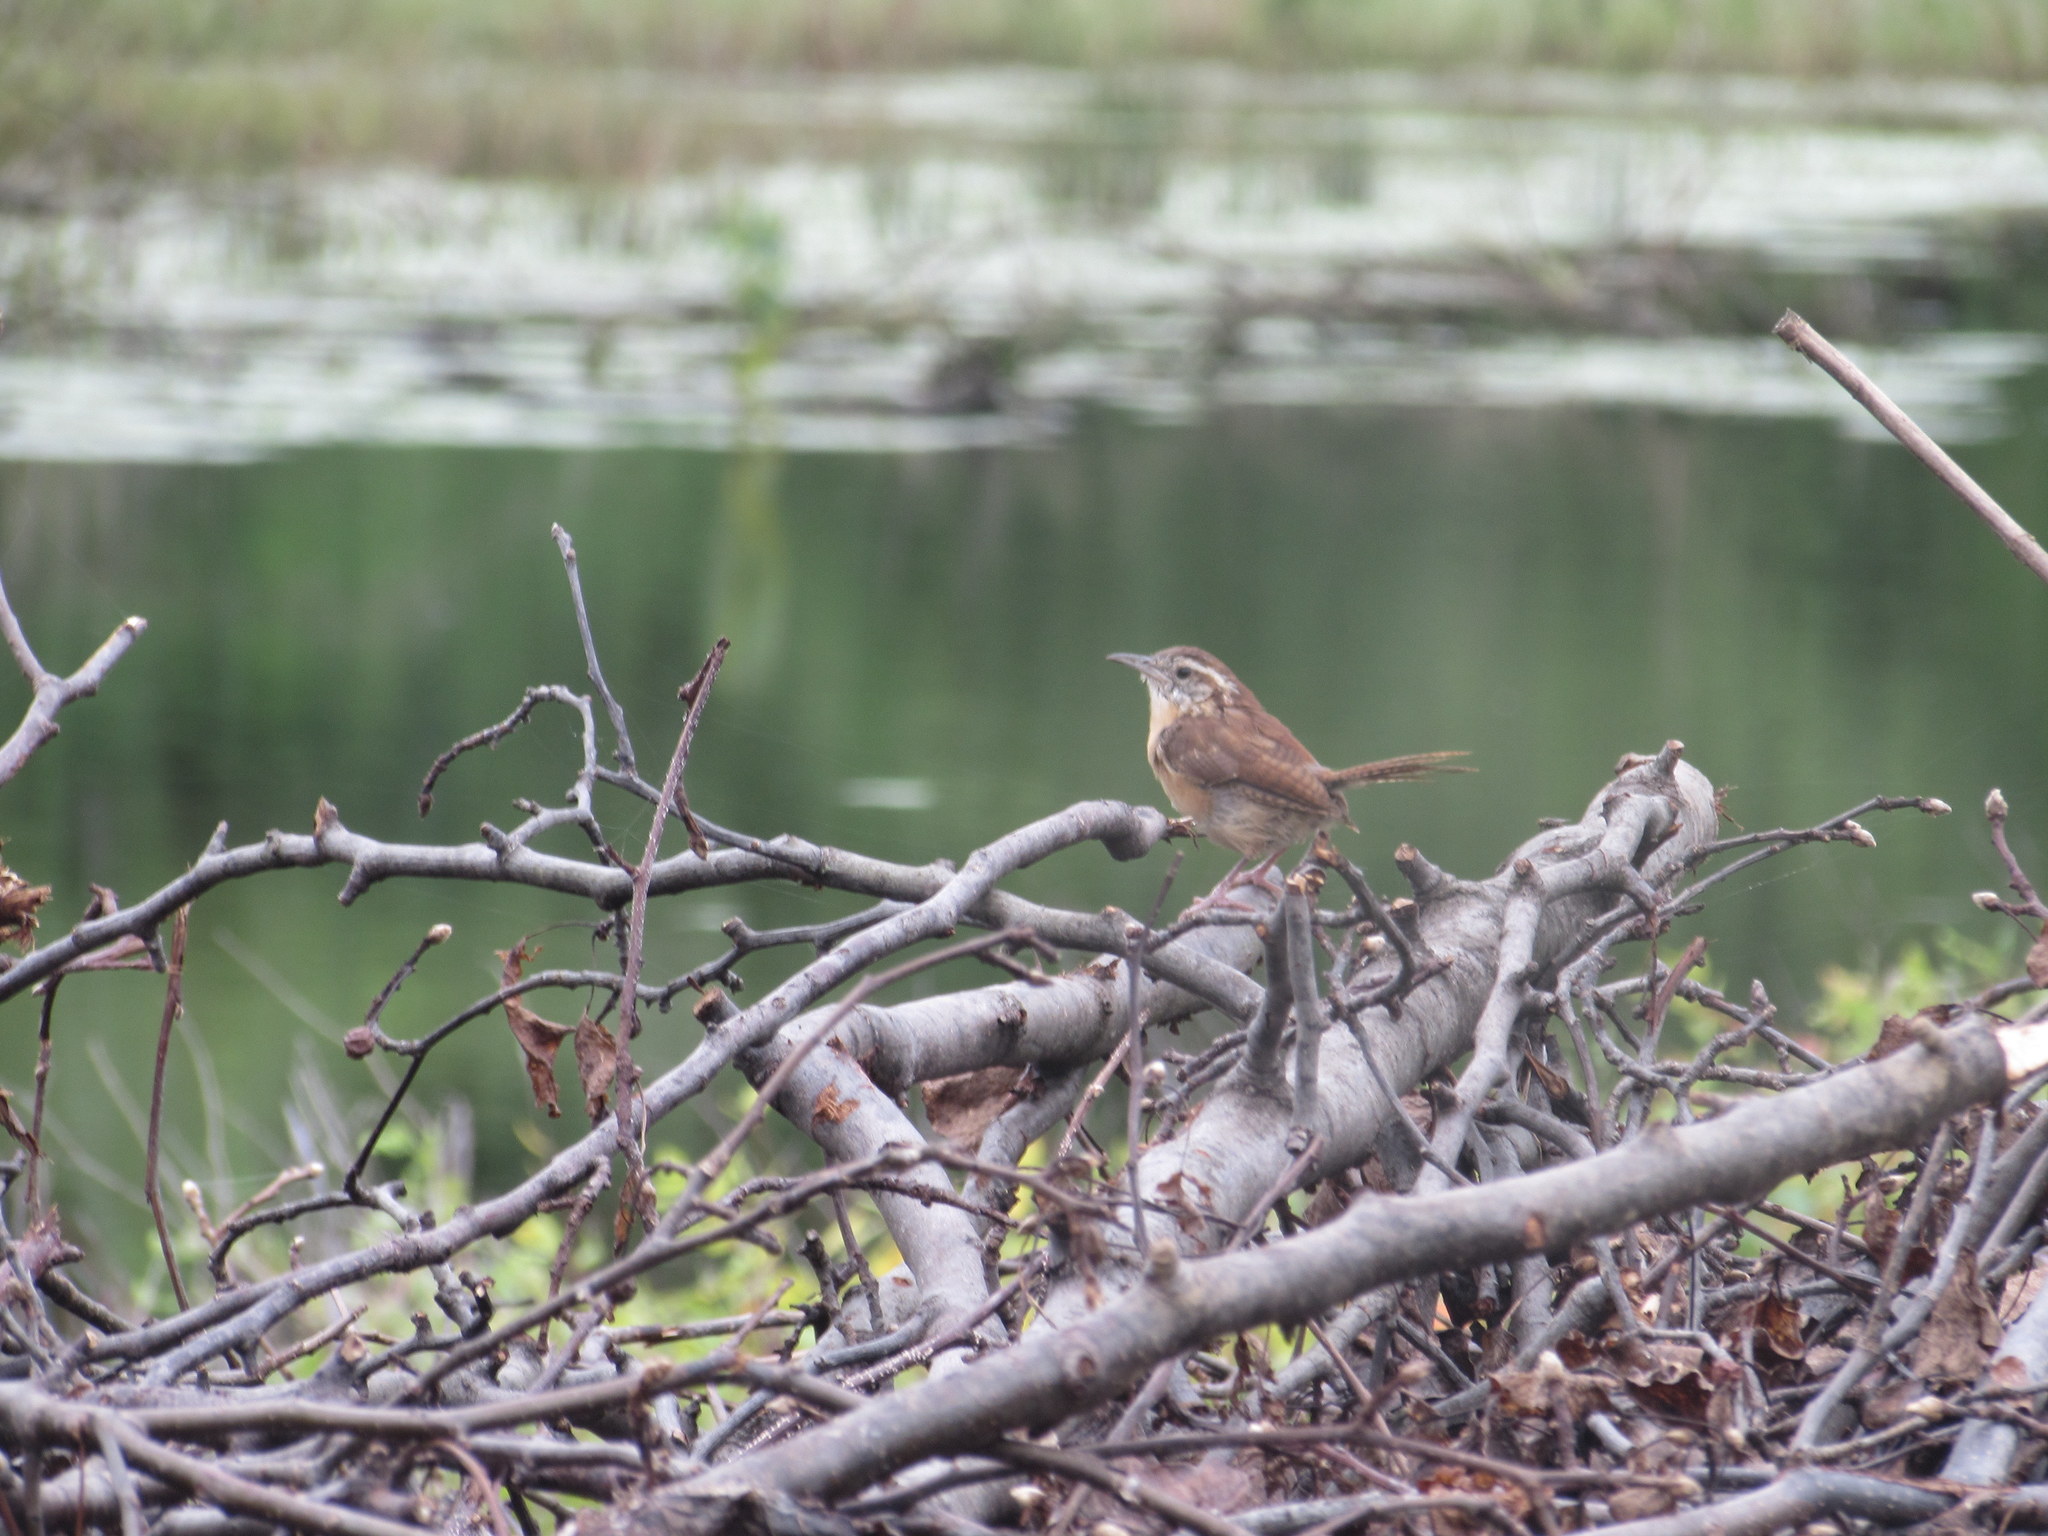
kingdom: Animalia
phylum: Chordata
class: Aves
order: Passeriformes
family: Troglodytidae
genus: Thryothorus
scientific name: Thryothorus ludovicianus
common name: Carolina wren
